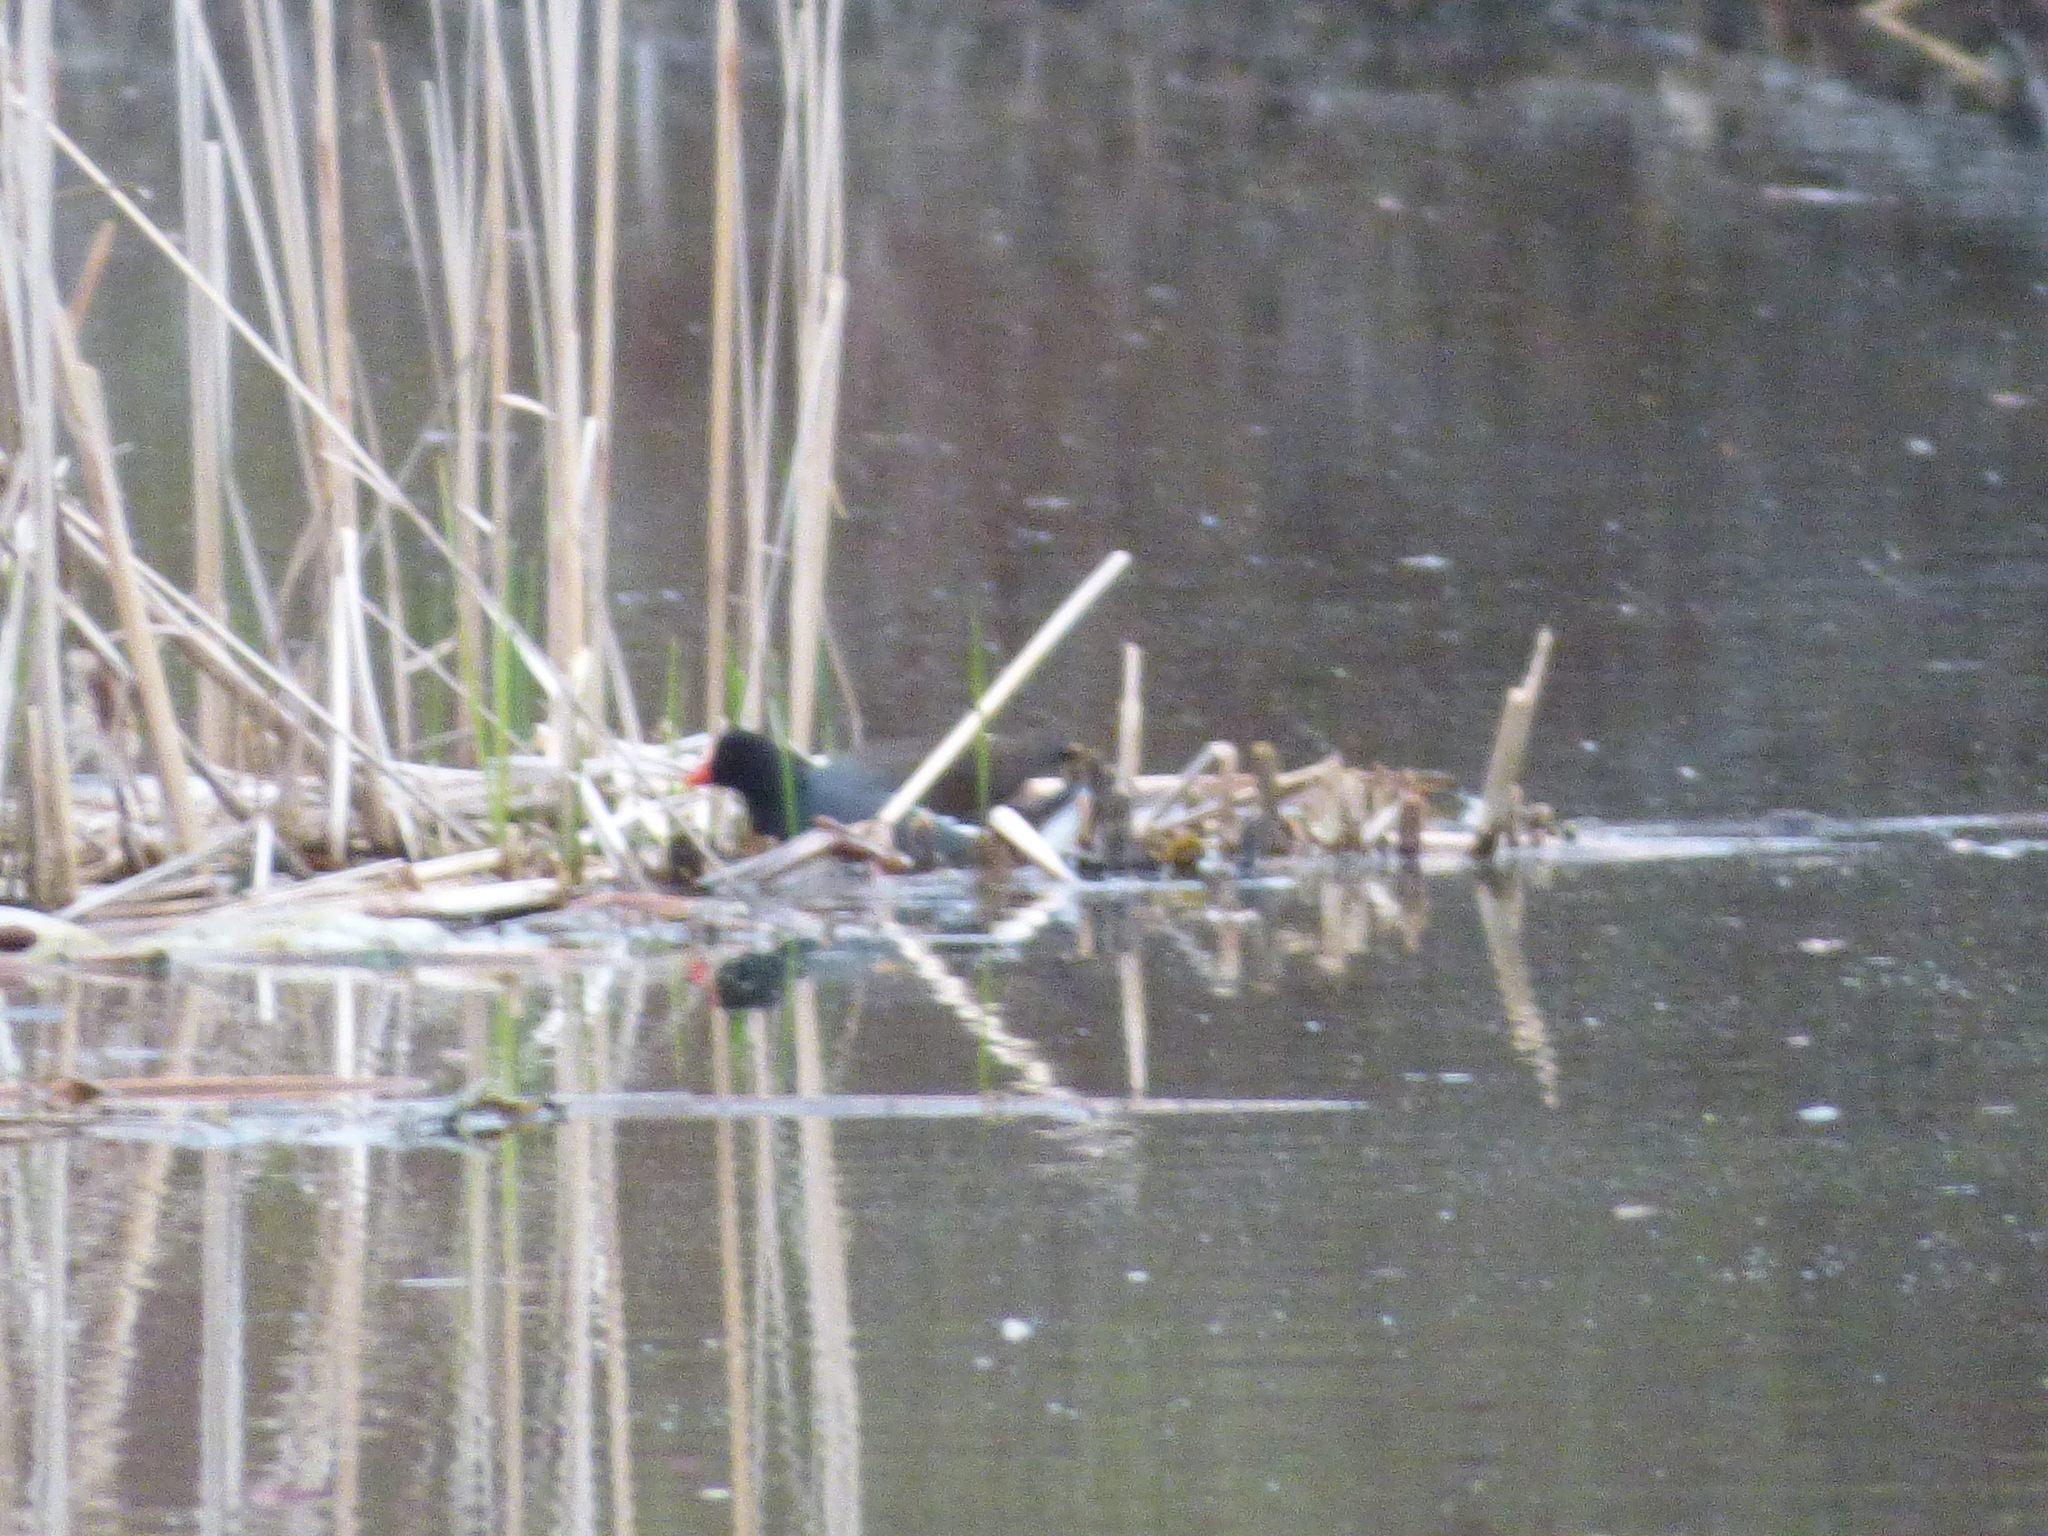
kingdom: Animalia
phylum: Chordata
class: Aves
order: Gruiformes
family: Rallidae
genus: Gallinula
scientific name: Gallinula chloropus
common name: Common moorhen
